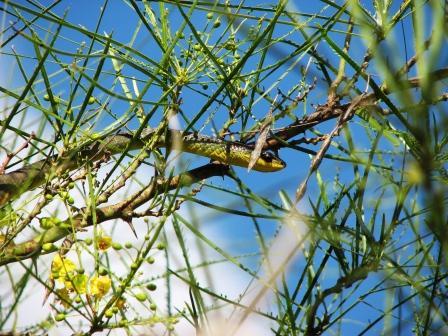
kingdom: Animalia
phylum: Chordata
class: Squamata
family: Colubridae
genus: Dendrelaphis
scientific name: Dendrelaphis punctulatus
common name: Common tree snake
